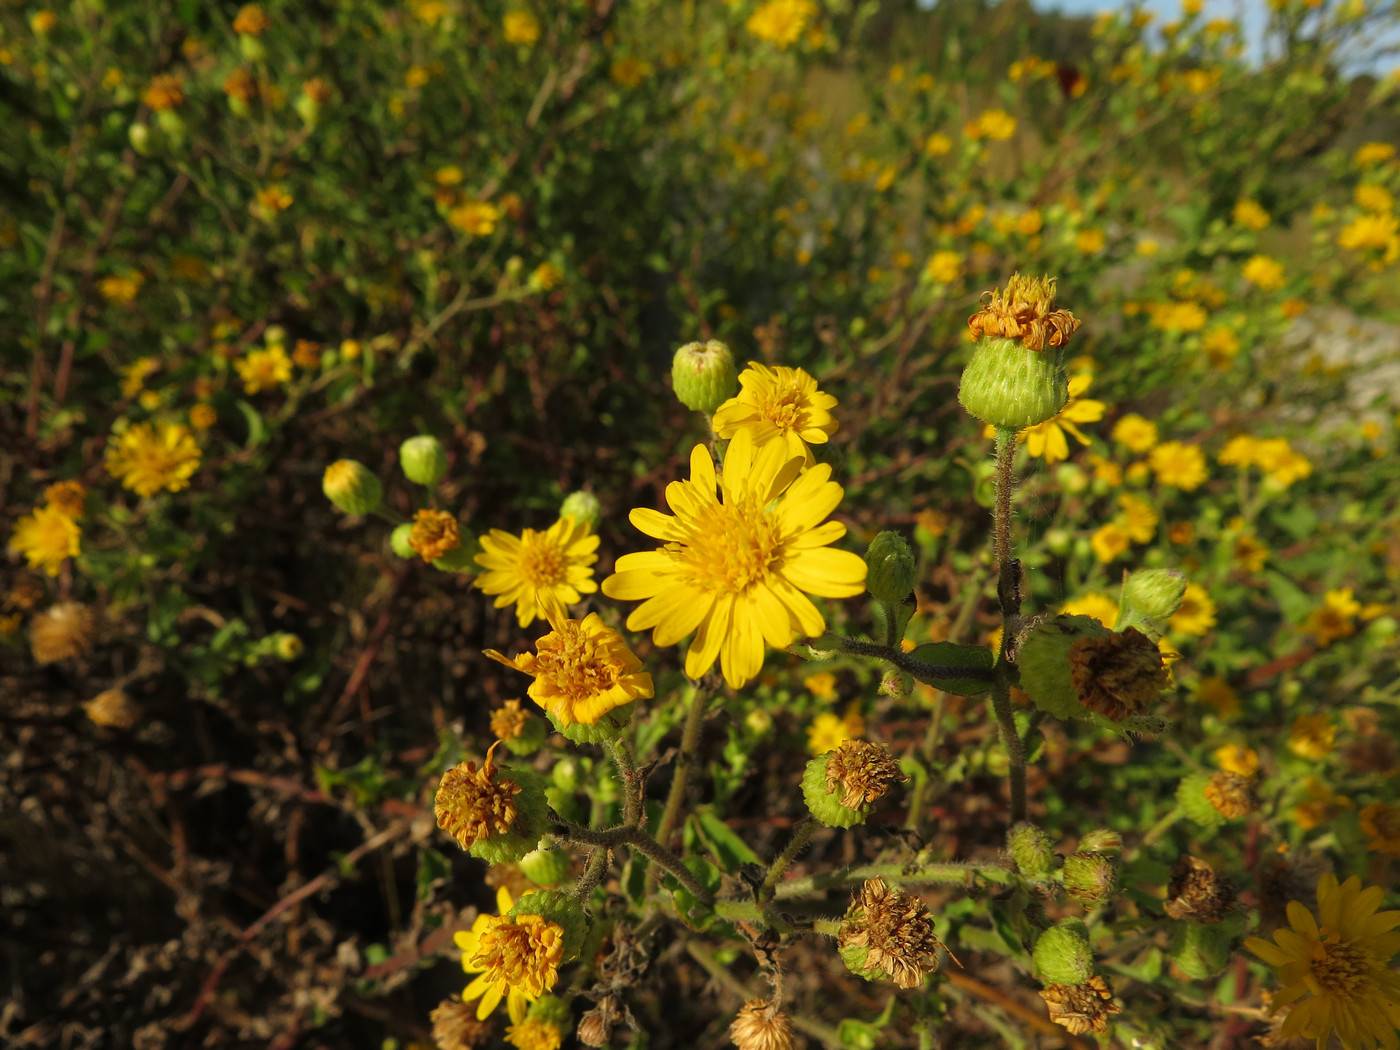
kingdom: Plantae
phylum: Tracheophyta
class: Magnoliopsida
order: Asterales
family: Asteraceae
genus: Heterotheca
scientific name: Heterotheca subaxillaris
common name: Camphorweed
